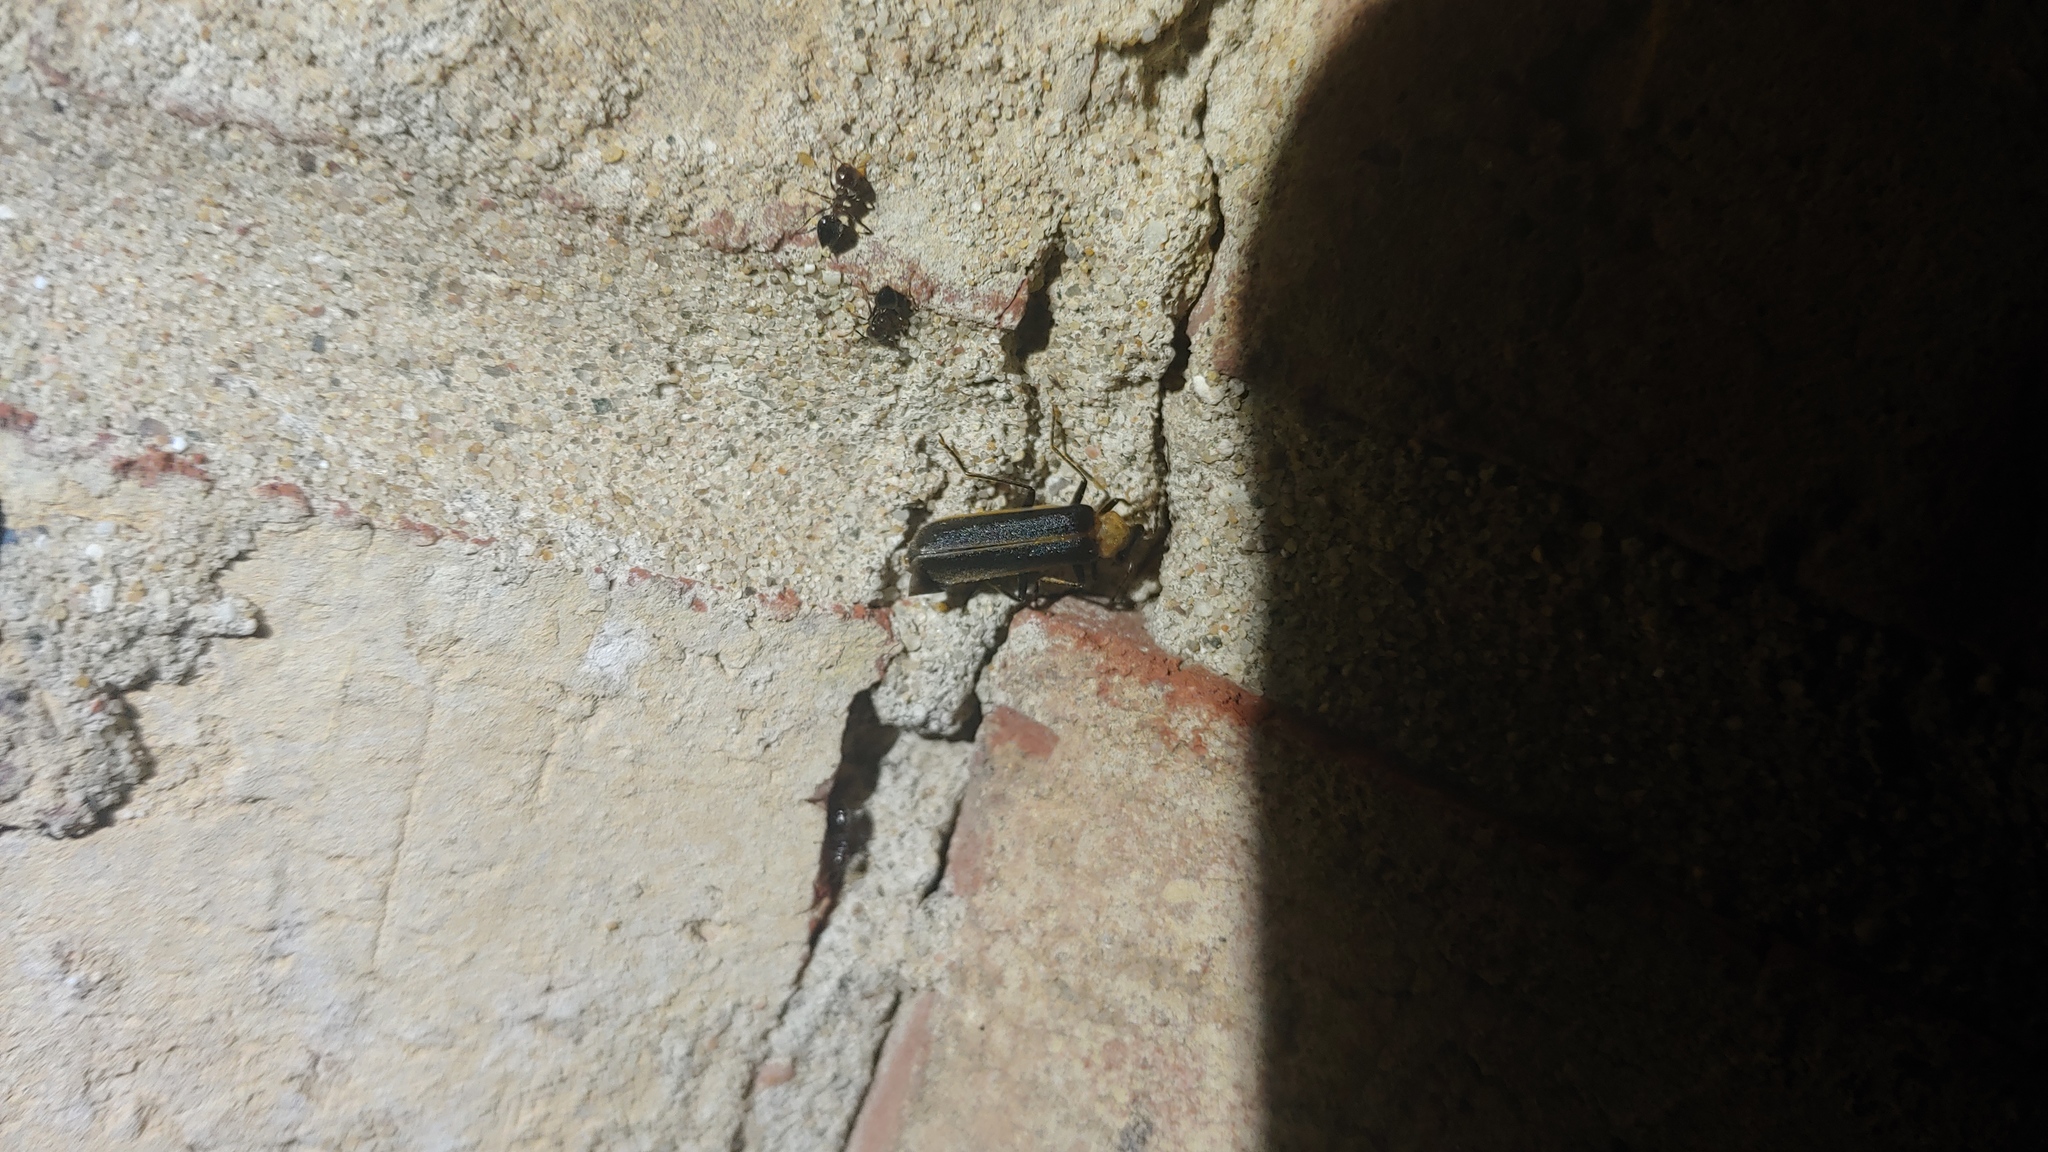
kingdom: Animalia
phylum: Arthropoda
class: Insecta
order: Coleoptera
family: Cantharidae
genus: Podabrus
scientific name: Podabrus flavicollis
